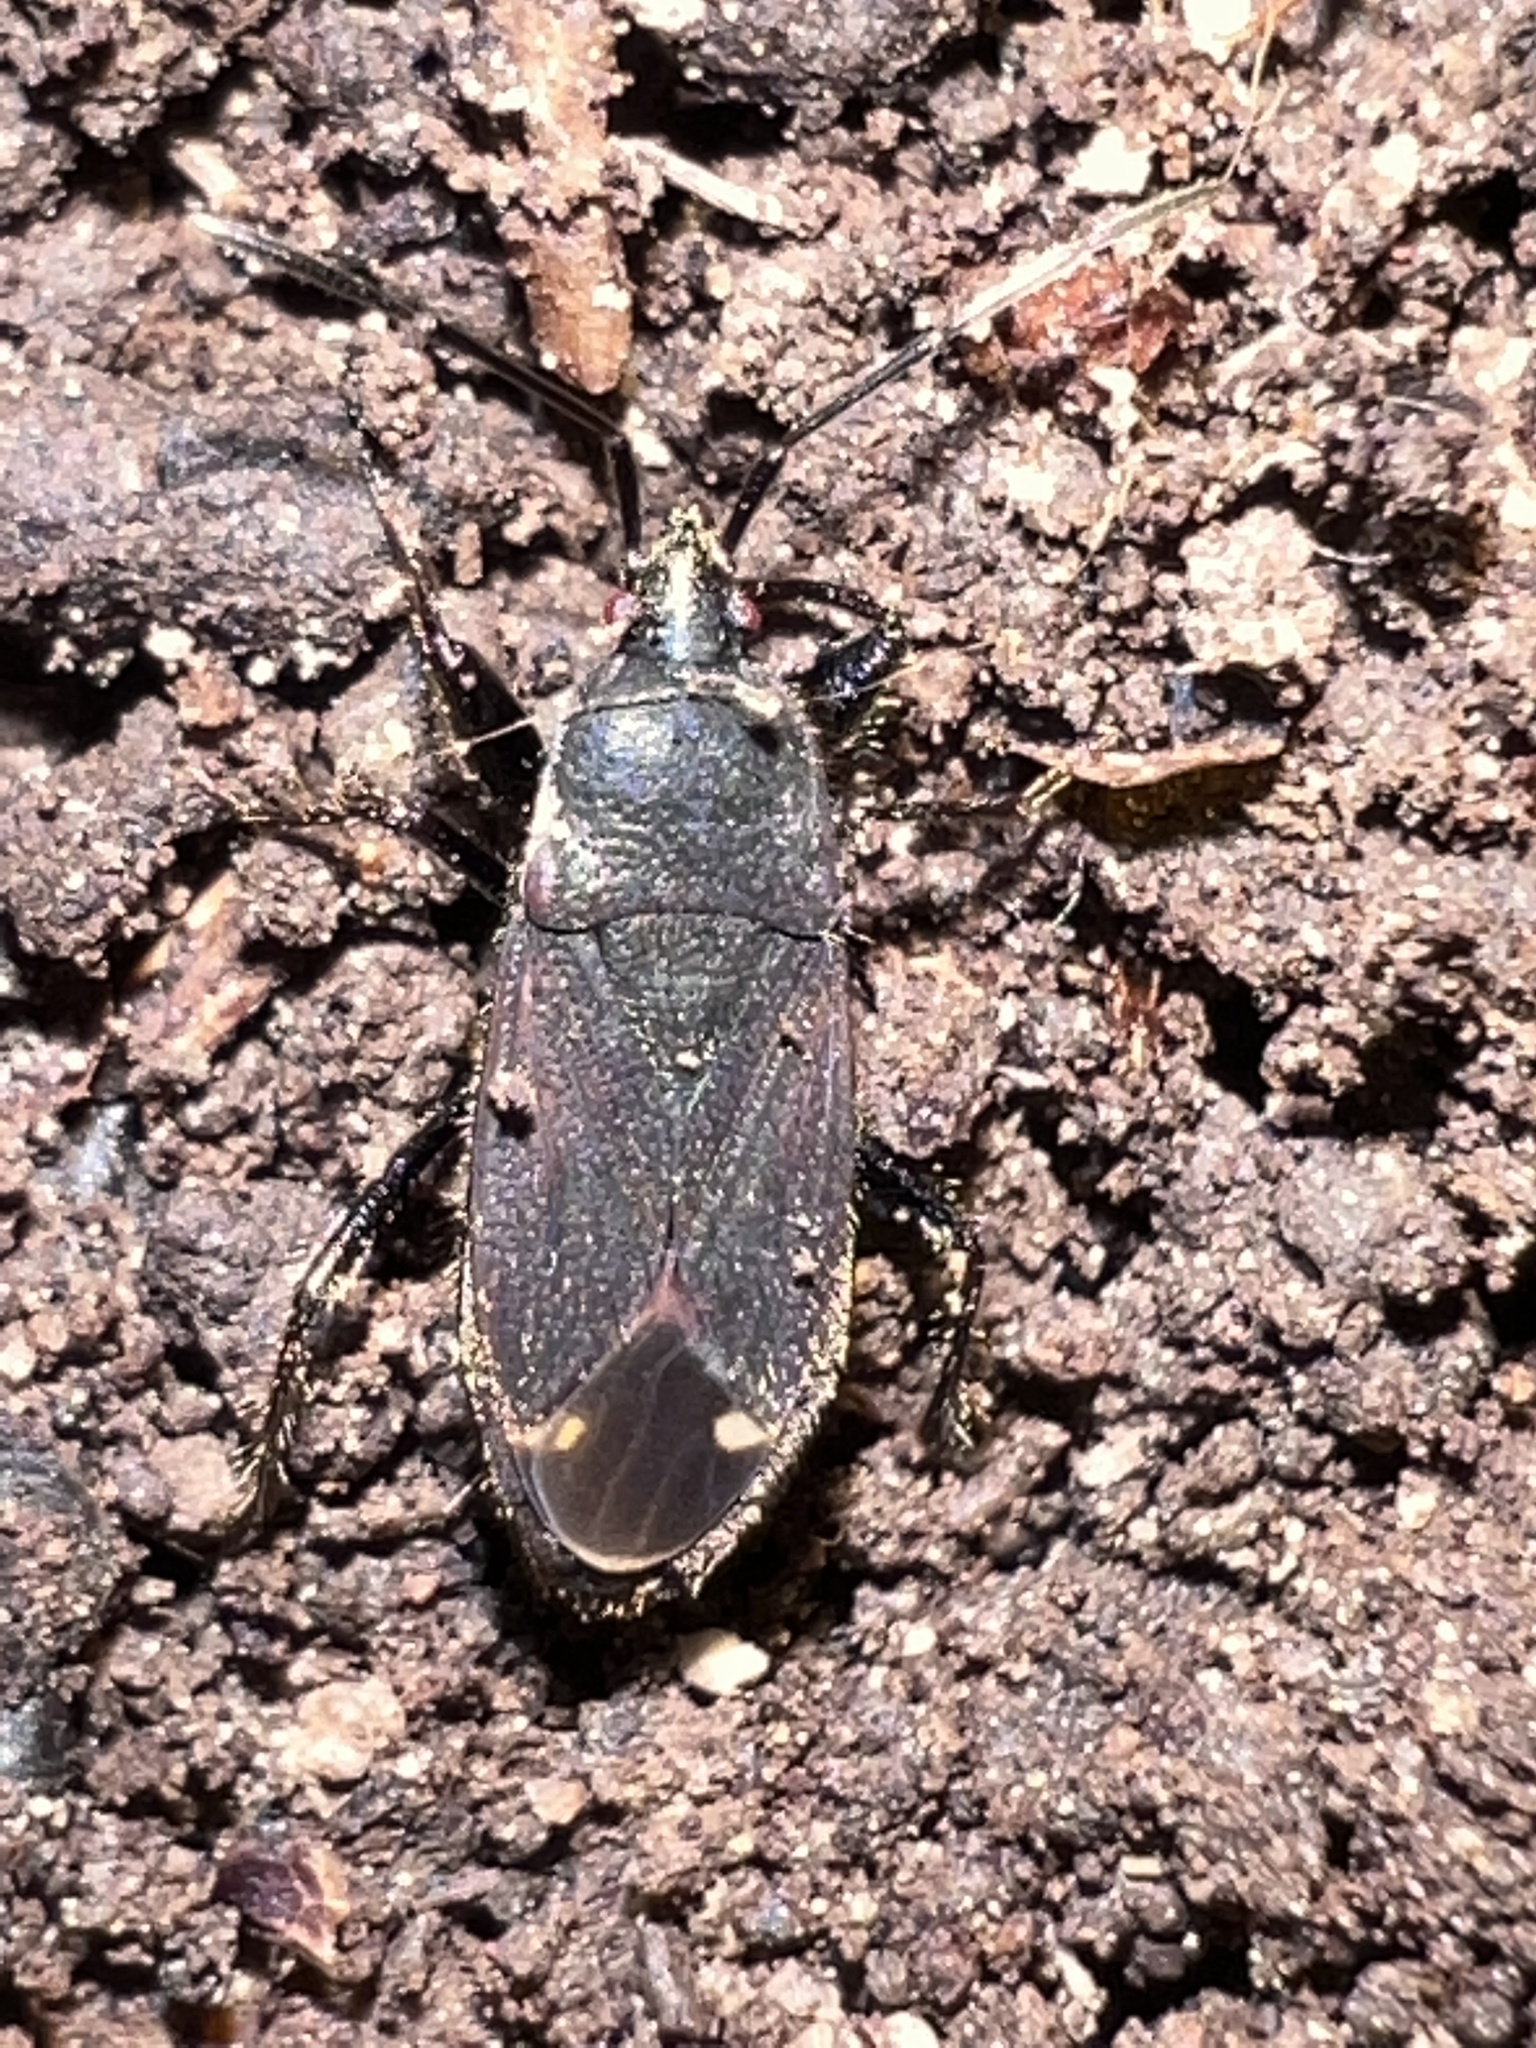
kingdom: Animalia
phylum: Arthropoda
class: Insecta
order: Hemiptera
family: Rhyparochromidae
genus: Eremocoris
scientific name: Eremocoris setosus
